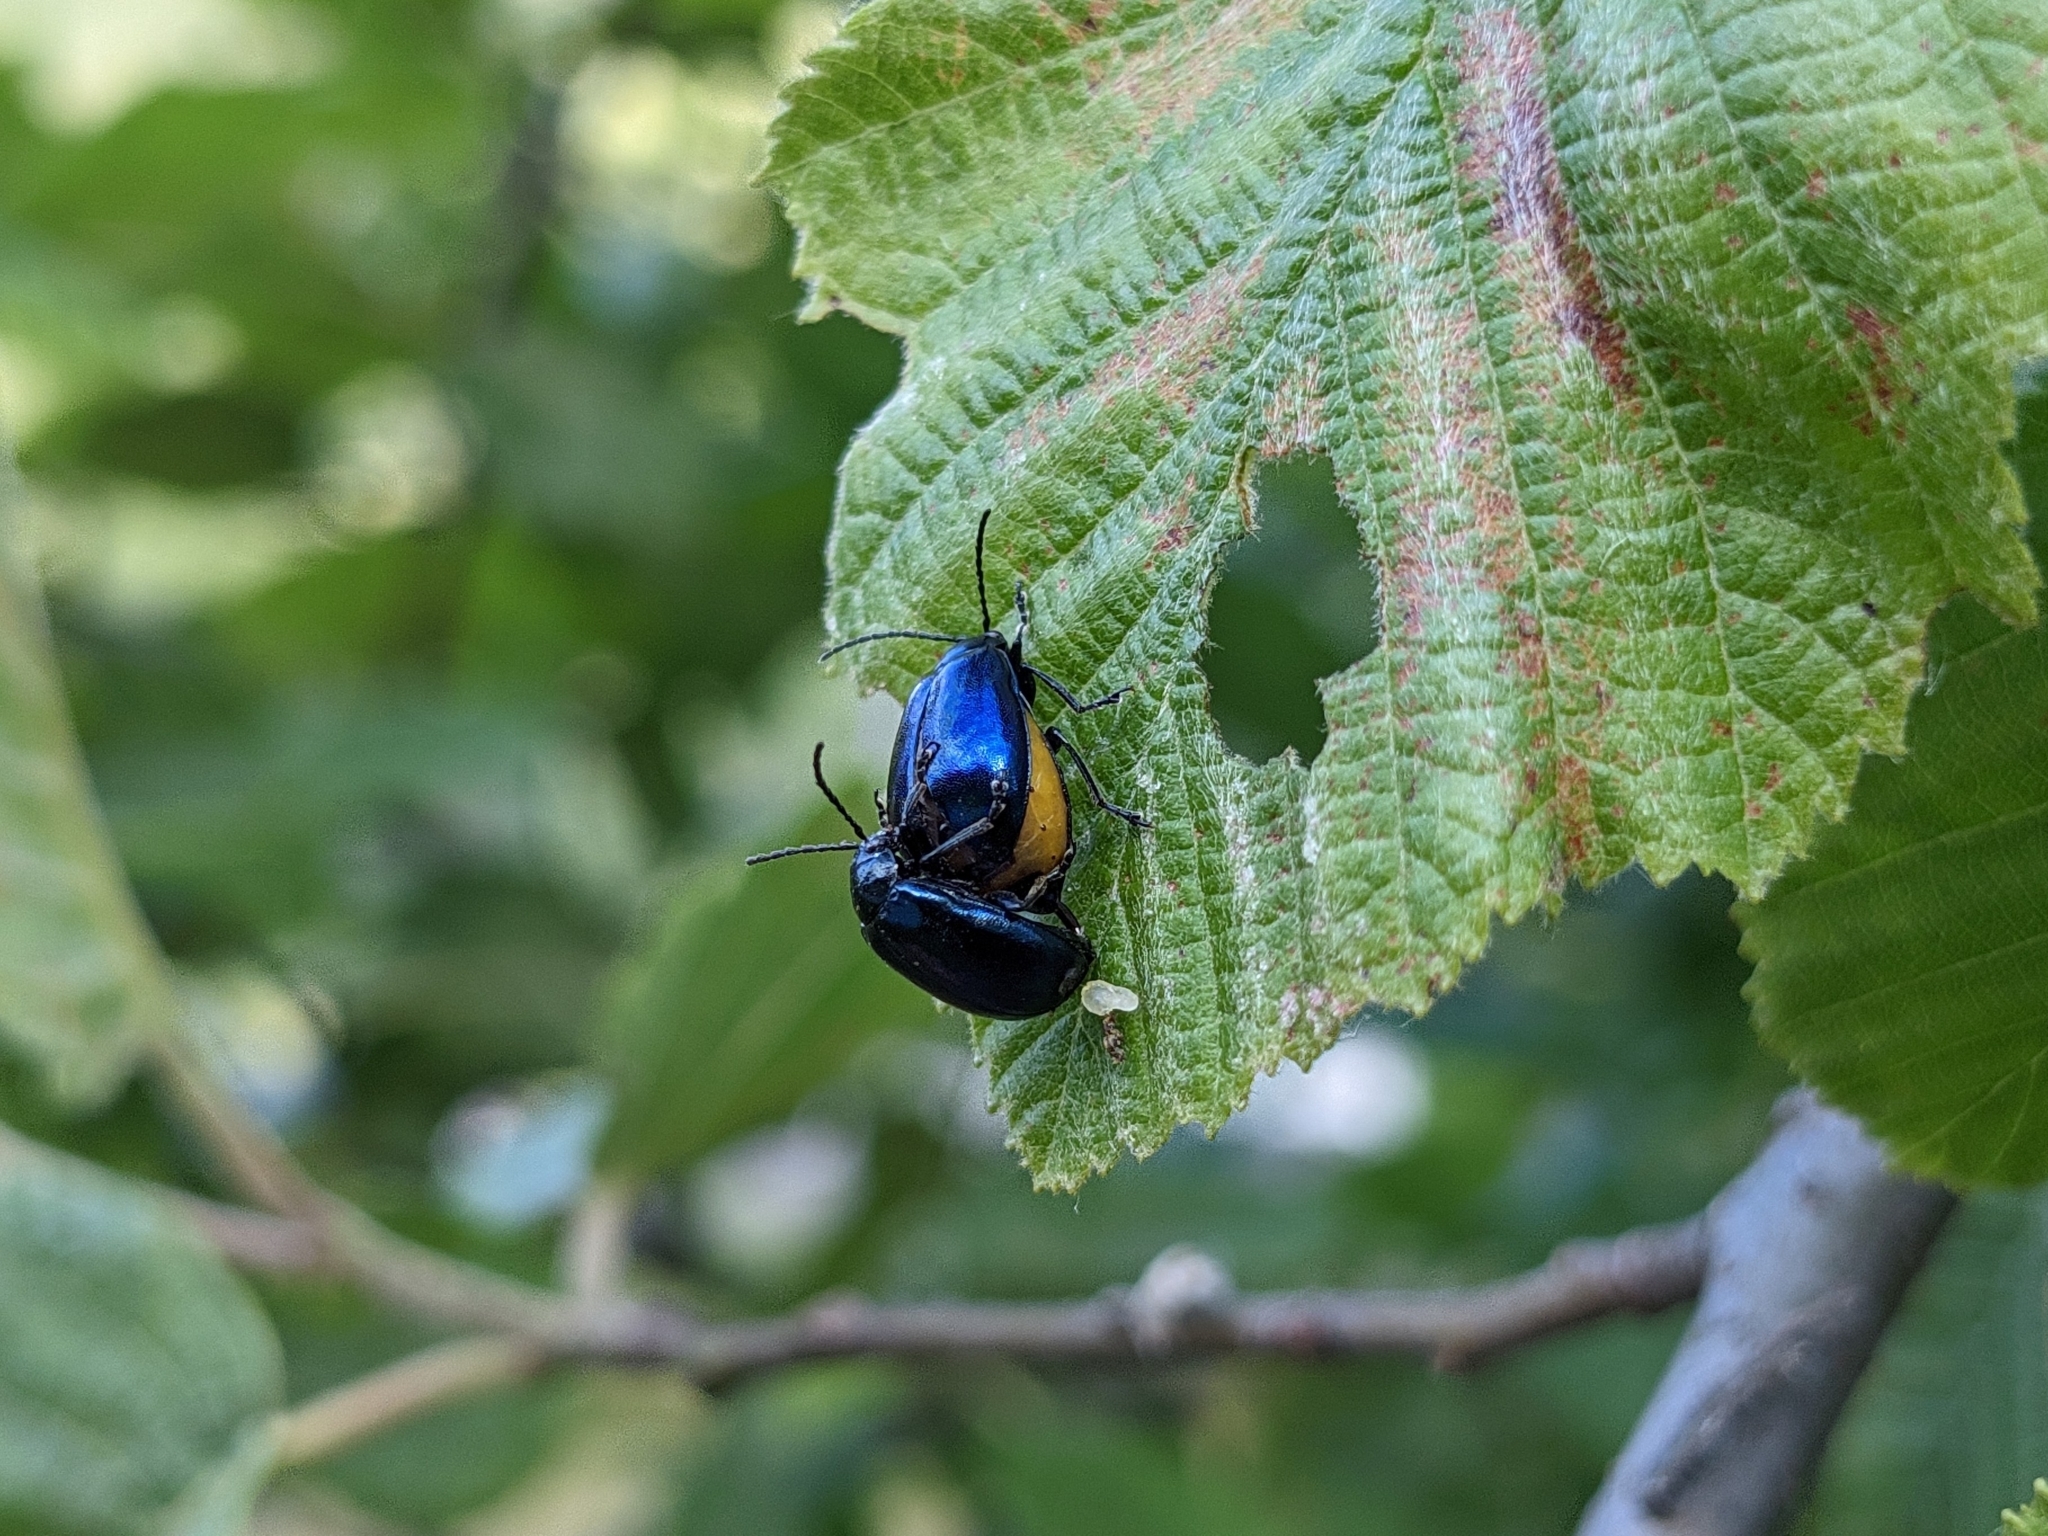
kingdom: Animalia
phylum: Arthropoda
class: Insecta
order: Coleoptera
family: Chrysomelidae
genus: Agelastica
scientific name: Agelastica alni
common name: Alder leaf beetle
